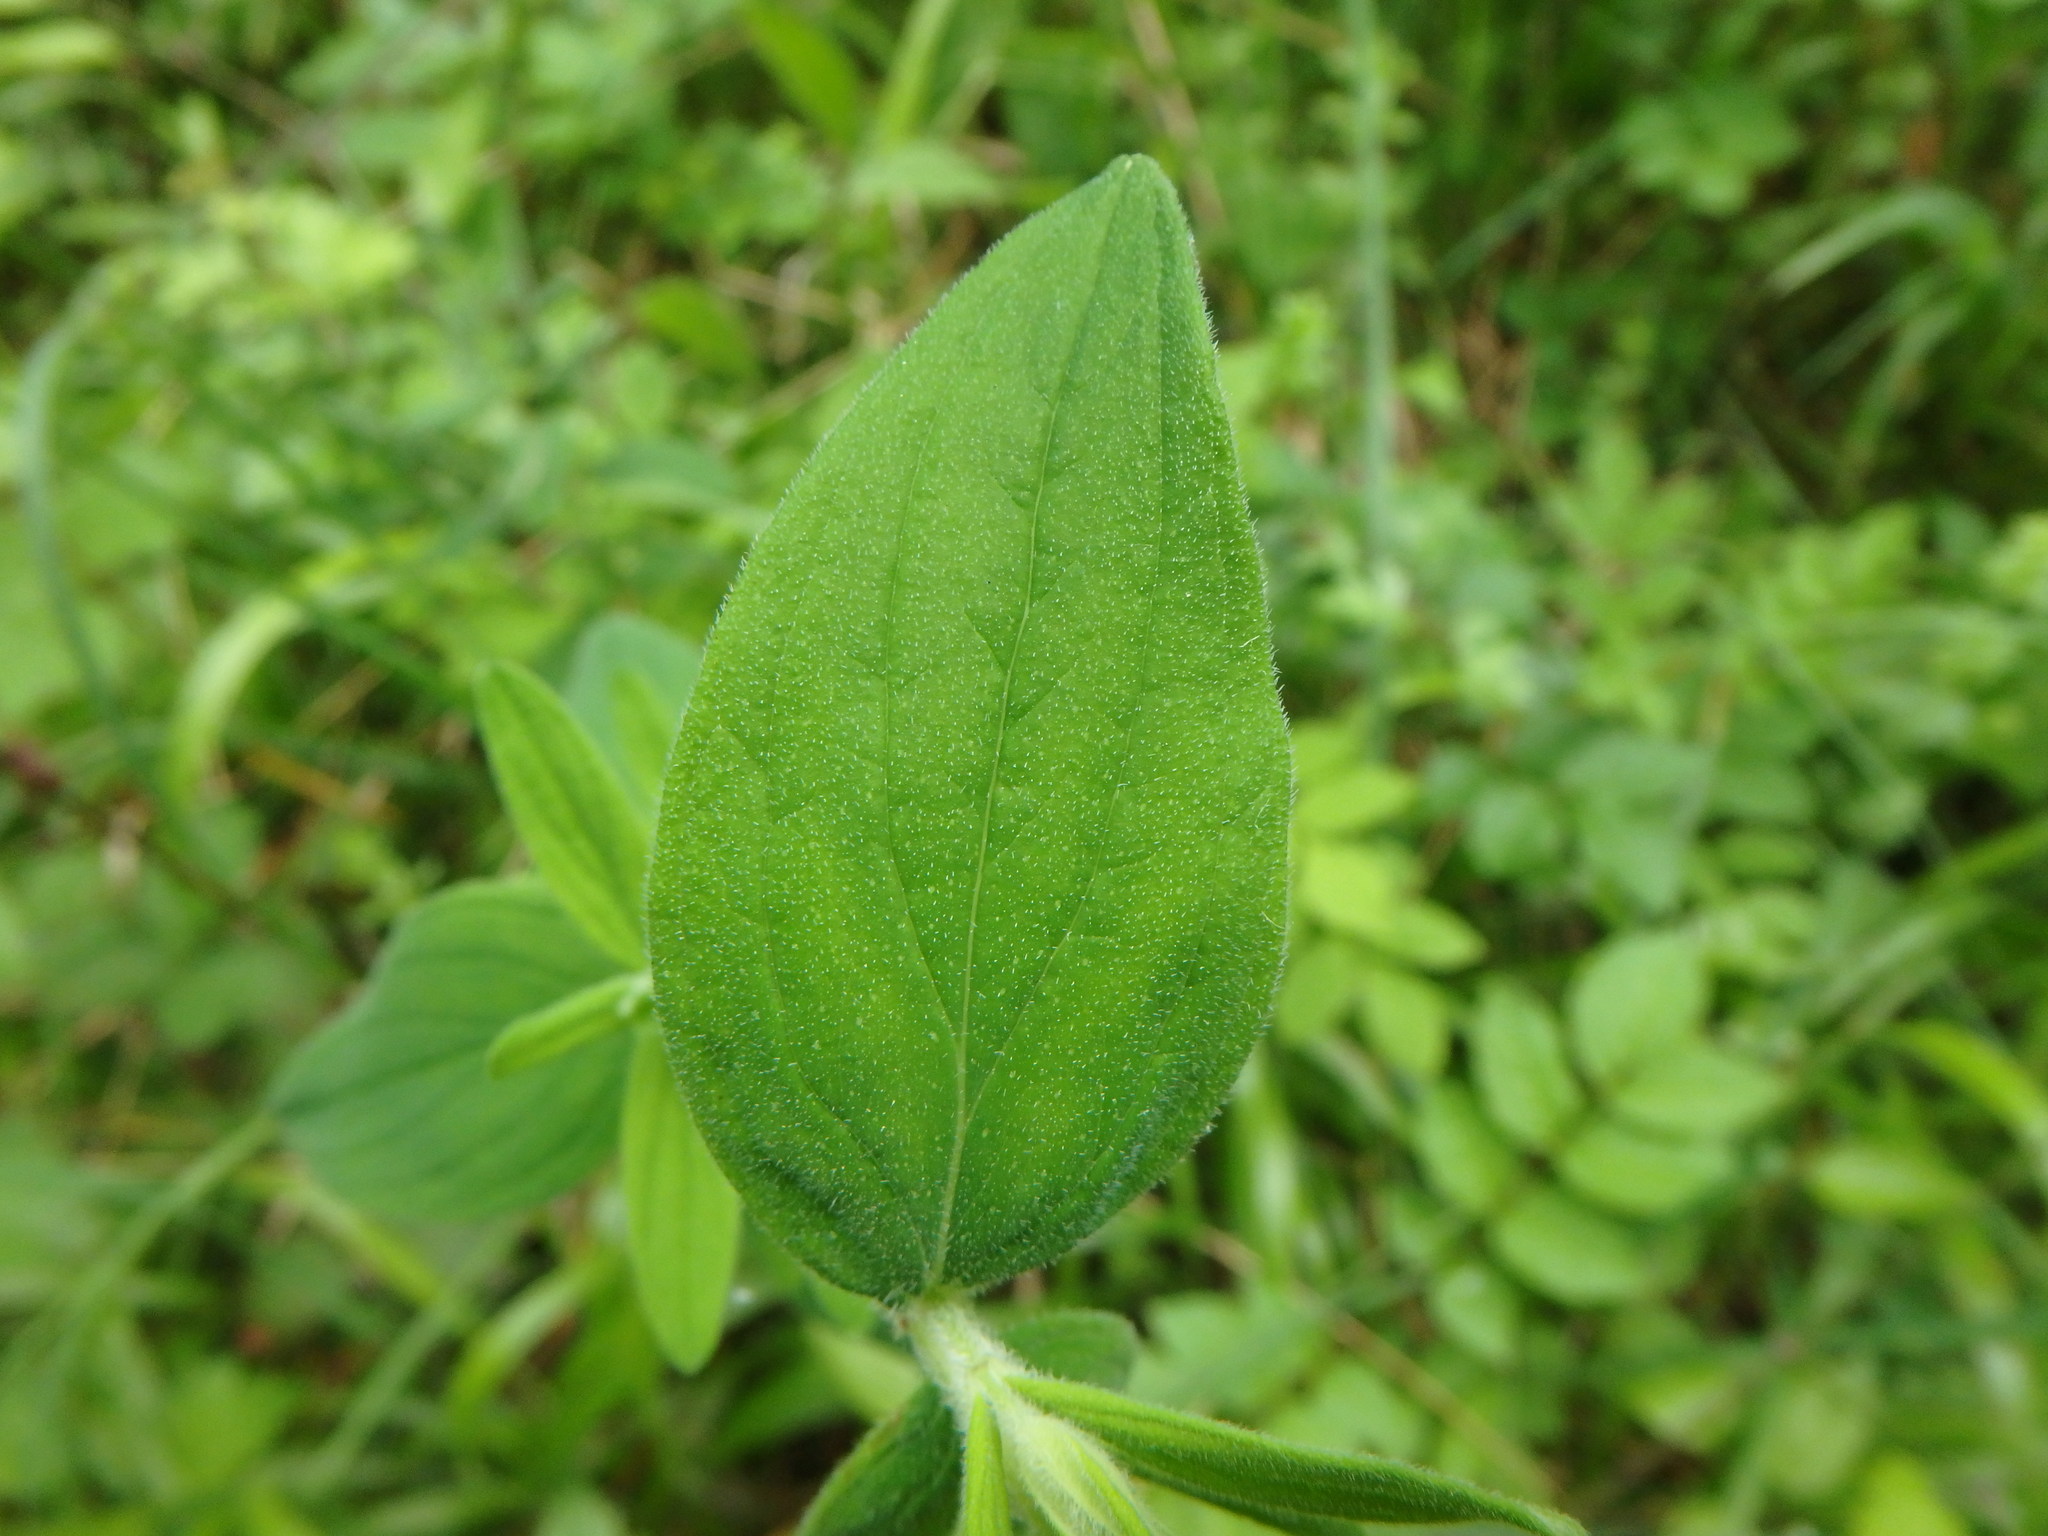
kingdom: Plantae
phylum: Tracheophyta
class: Magnoliopsida
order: Malpighiales
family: Hypericaceae
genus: Hypericum
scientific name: Hypericum hirsutum
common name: Hairy st. john's-wort
